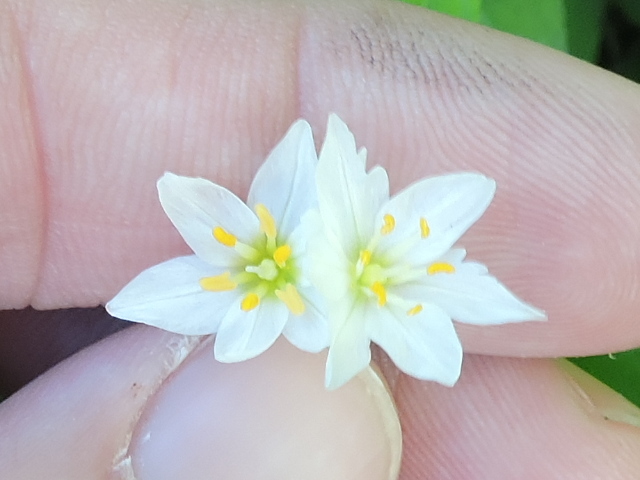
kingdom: Plantae
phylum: Tracheophyta
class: Liliopsida
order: Asparagales
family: Amaryllidaceae
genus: Nothoscordum
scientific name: Nothoscordum bivalve
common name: Crow-poison
